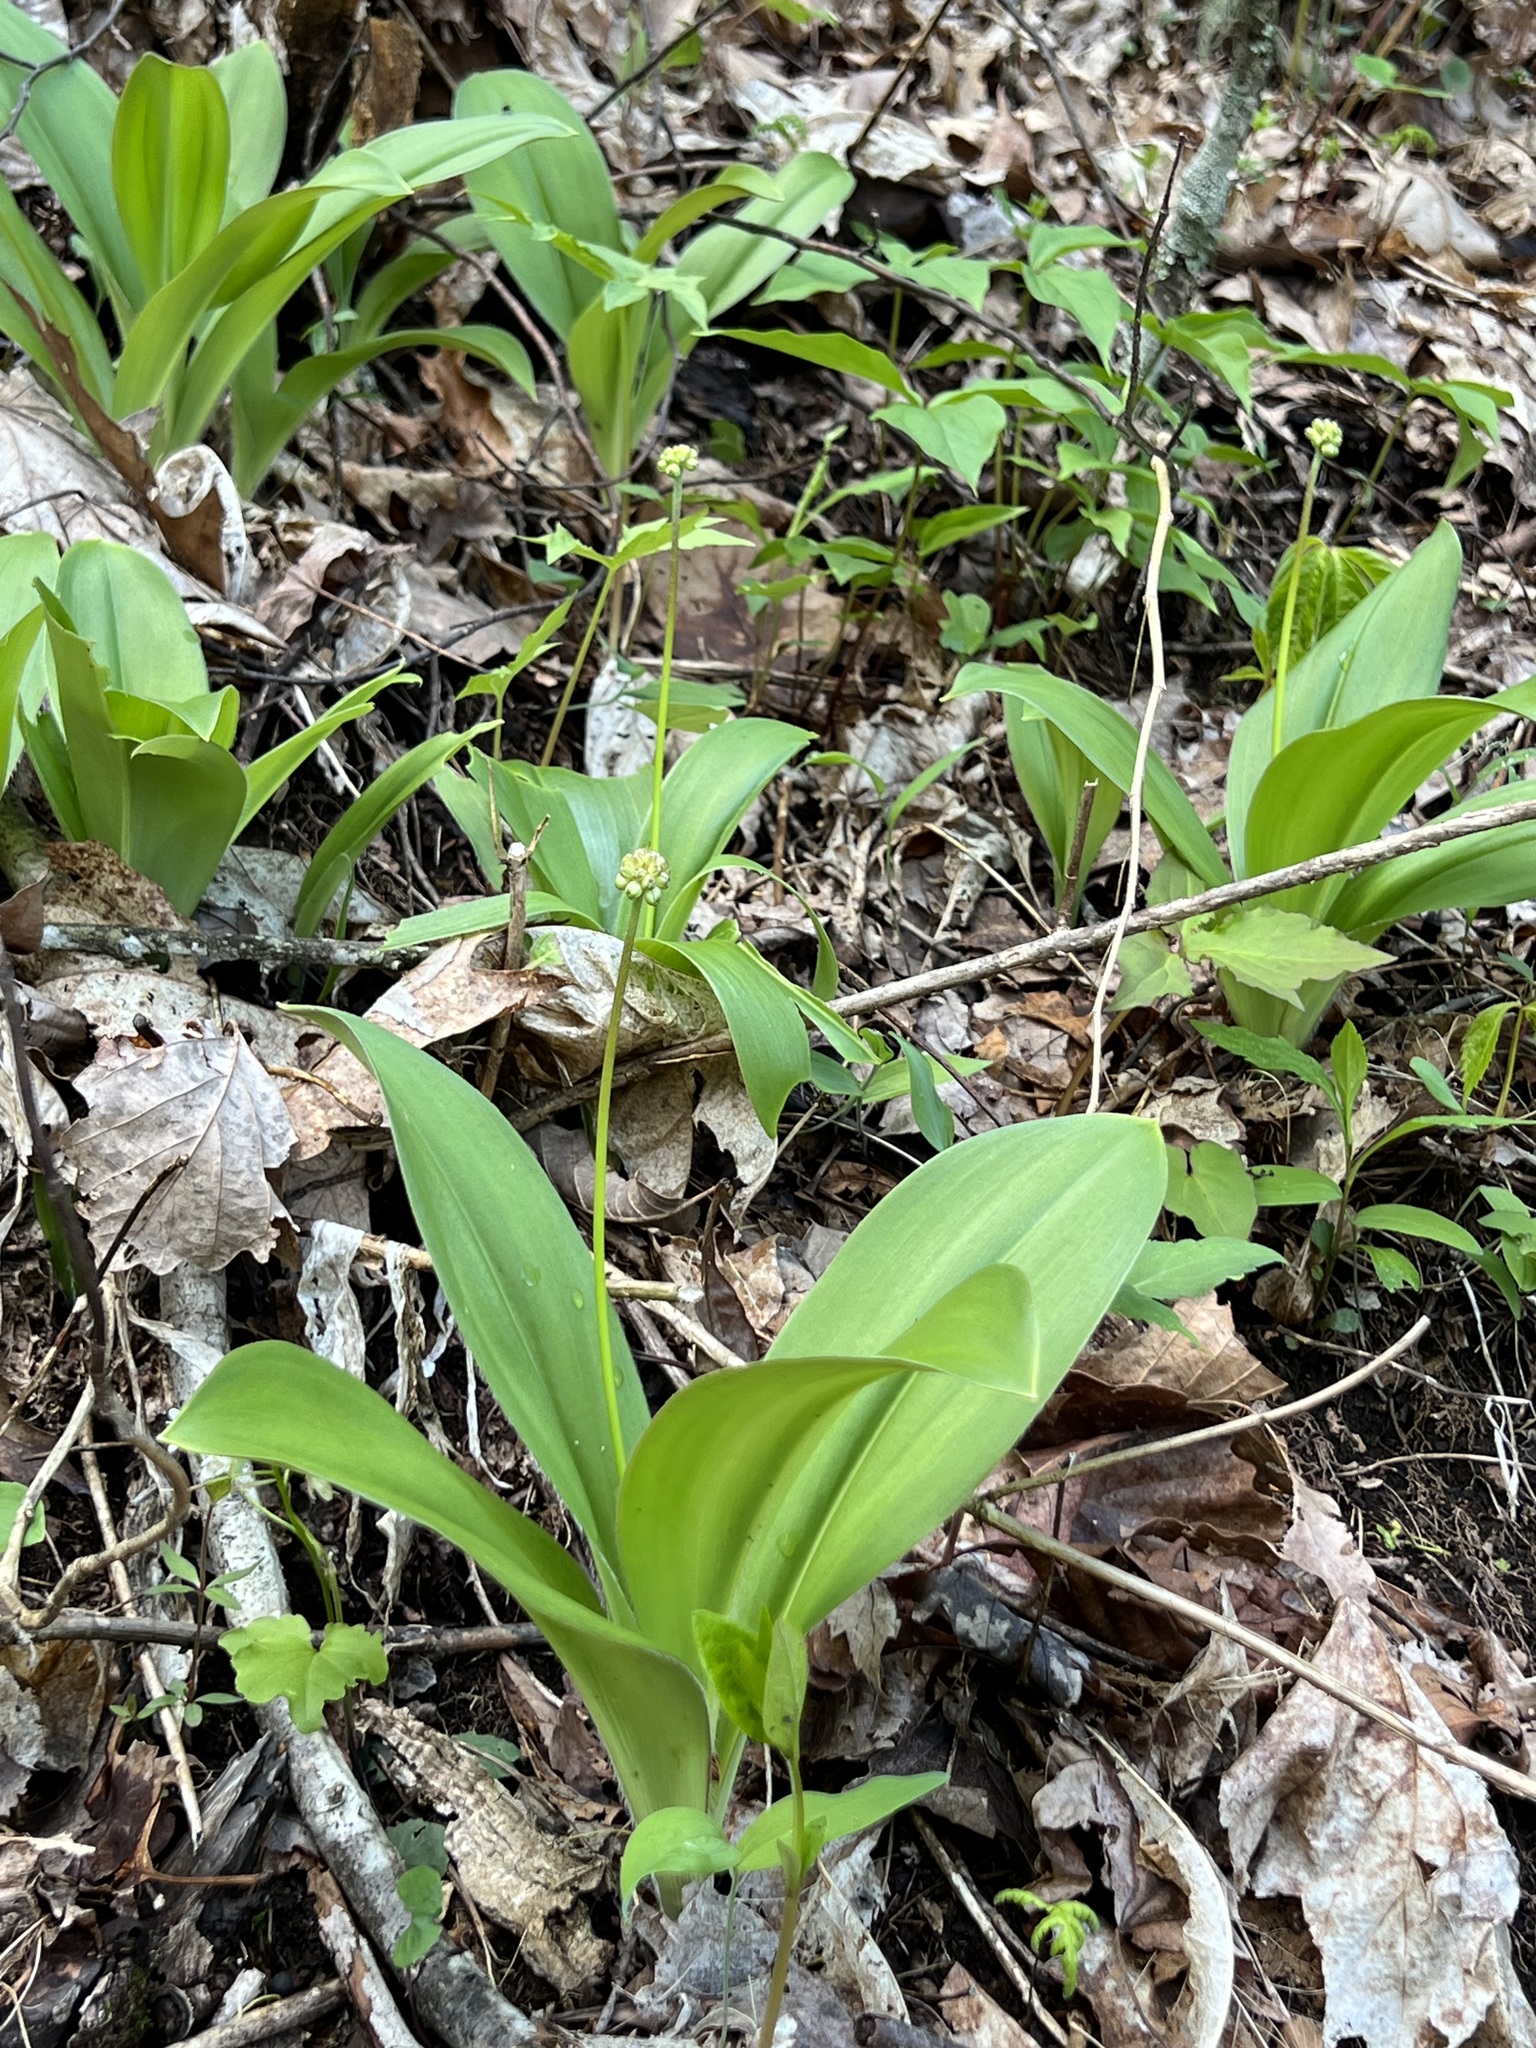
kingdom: Plantae
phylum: Tracheophyta
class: Liliopsida
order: Liliales
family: Liliaceae
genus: Clintonia
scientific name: Clintonia umbellulata
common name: Speckle wood-lily
